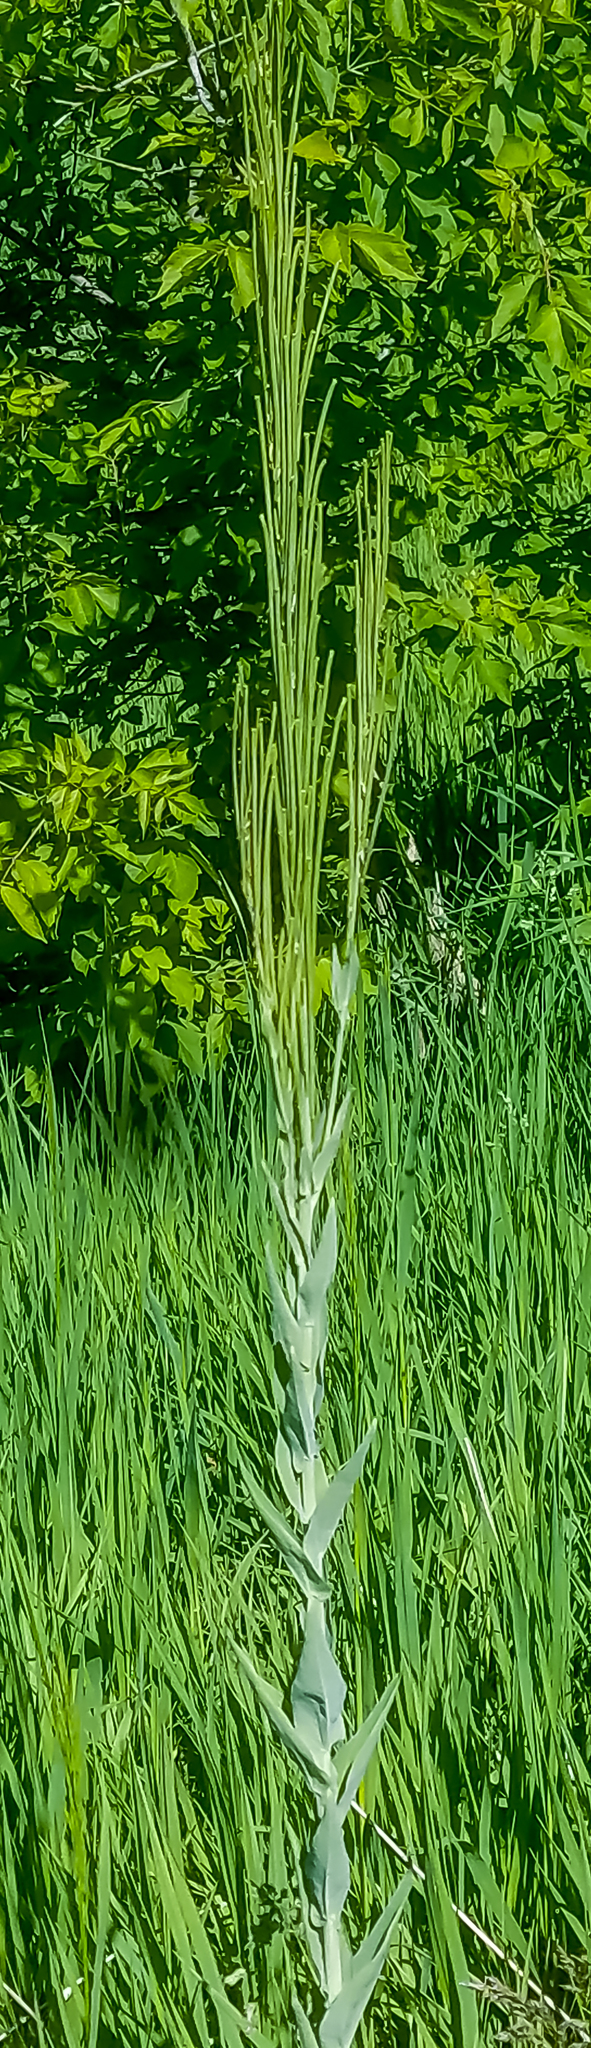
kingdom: Plantae
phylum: Tracheophyta
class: Magnoliopsida
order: Brassicales
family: Brassicaceae
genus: Turritis
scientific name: Turritis glabra
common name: Tower rockcress
